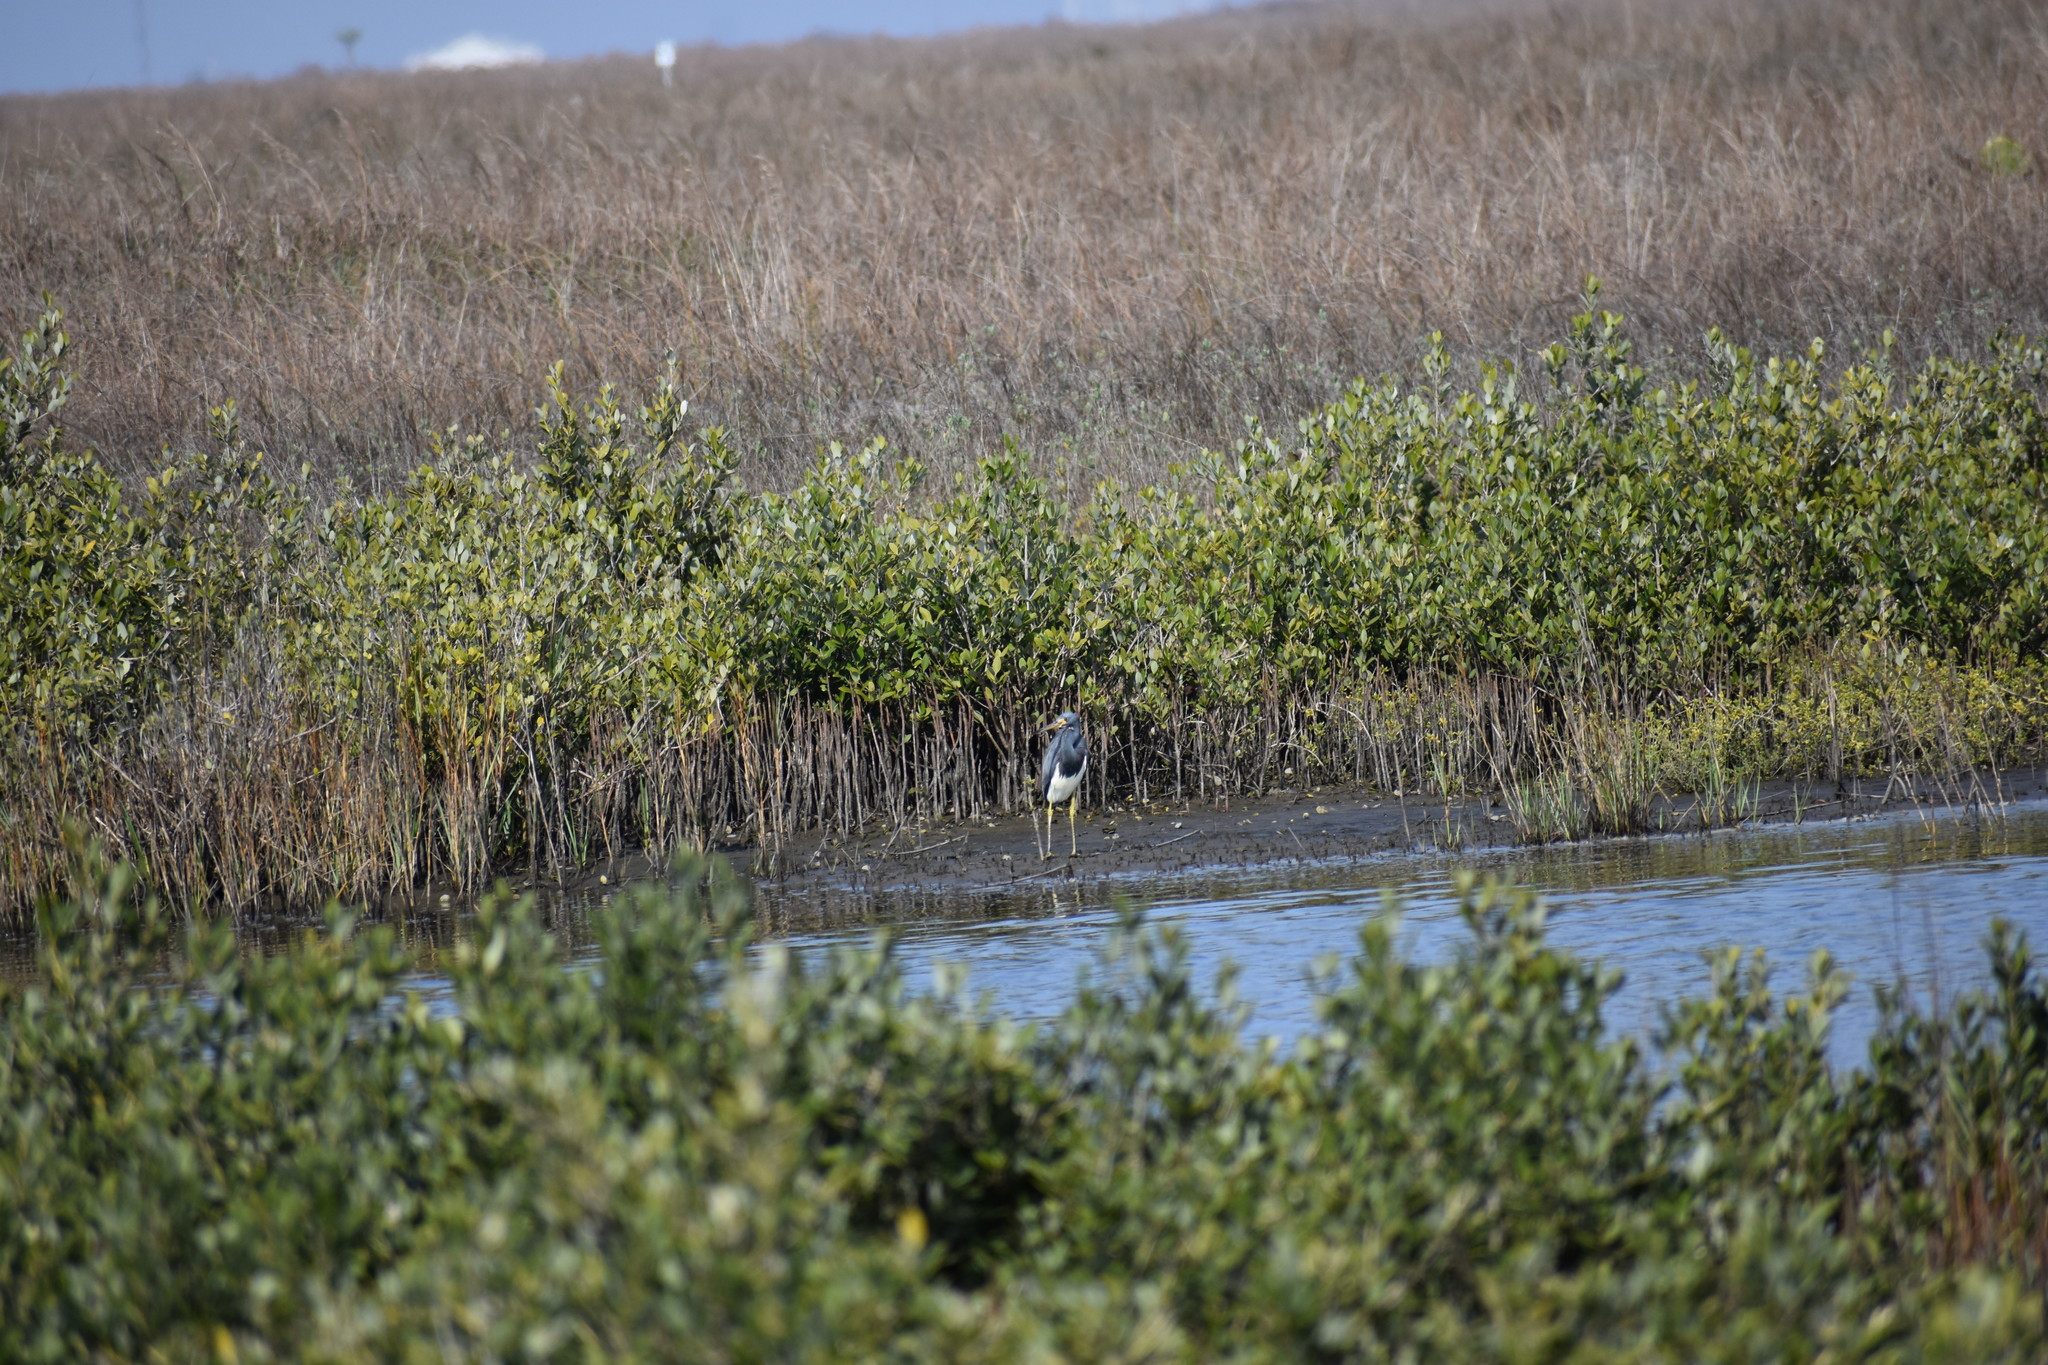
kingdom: Animalia
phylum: Chordata
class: Aves
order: Pelecaniformes
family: Ardeidae
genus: Egretta
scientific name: Egretta tricolor
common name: Tricolored heron
